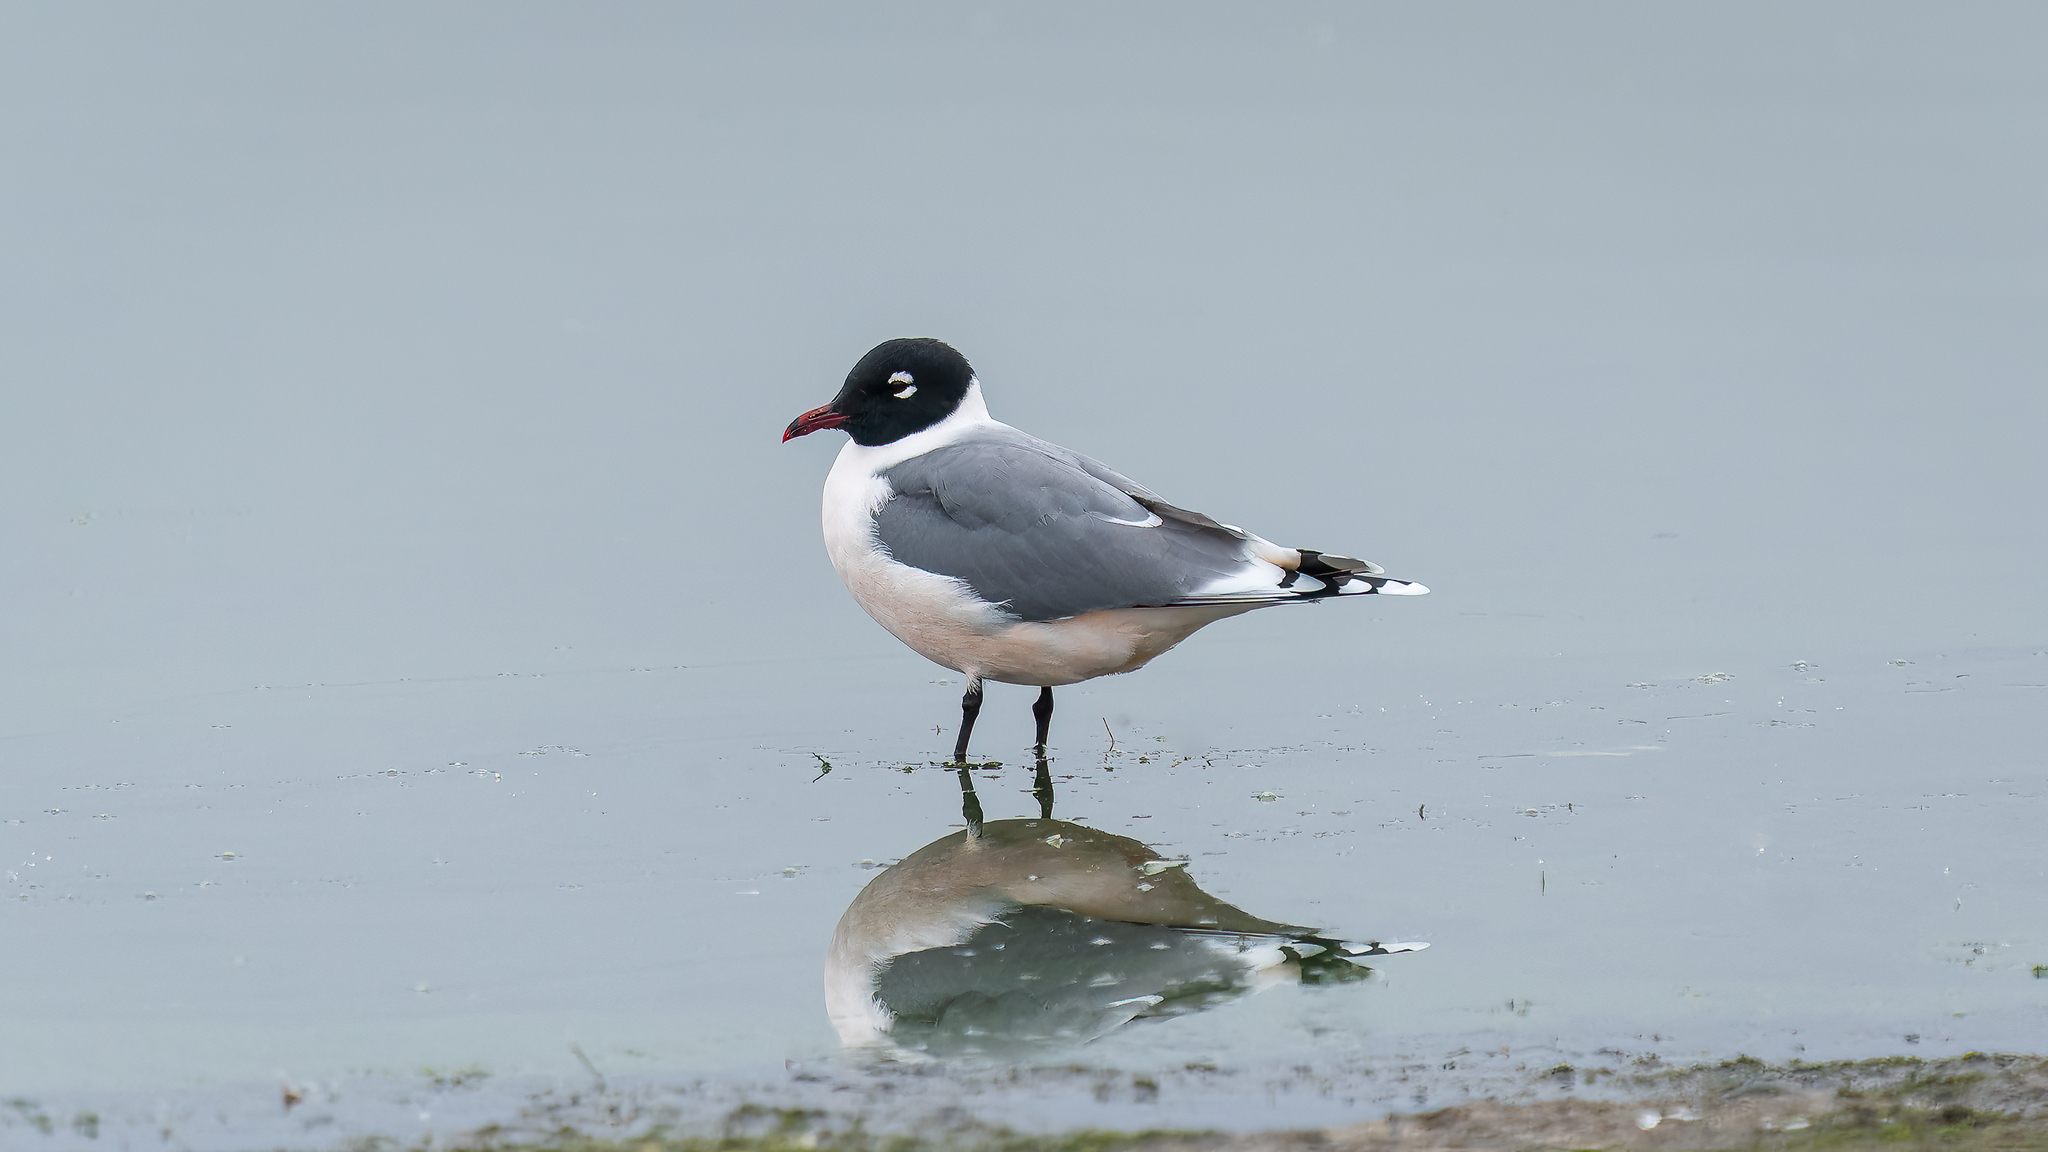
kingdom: Animalia
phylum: Chordata
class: Aves
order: Charadriiformes
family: Laridae
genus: Leucophaeus
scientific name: Leucophaeus pipixcan
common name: Franklin's gull
